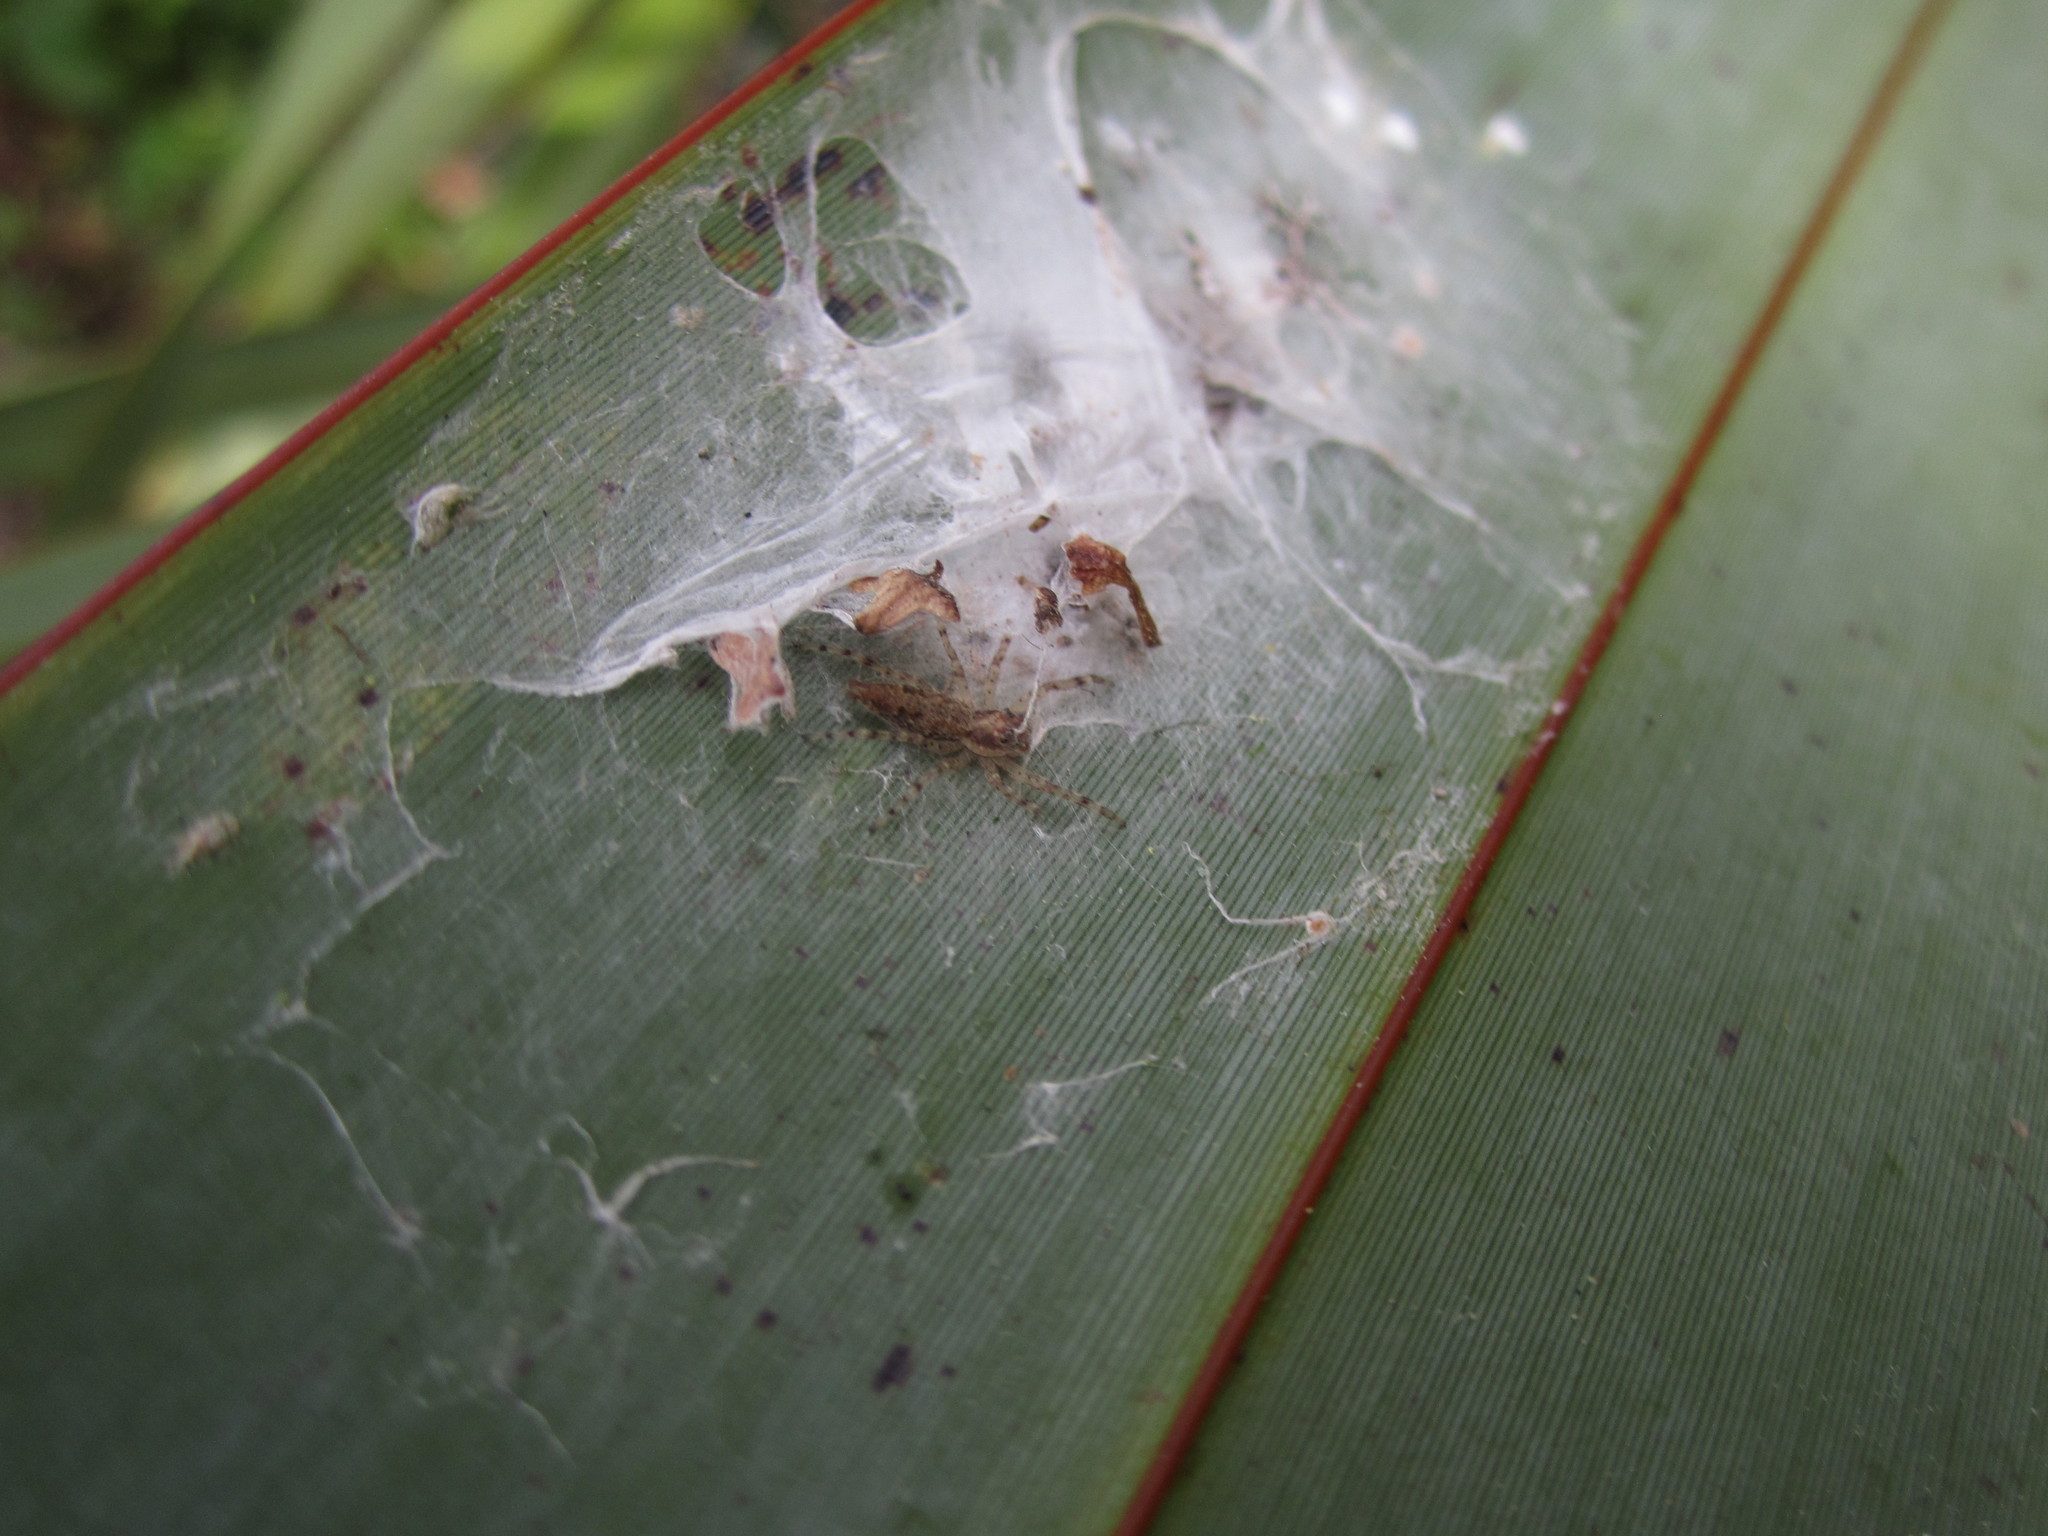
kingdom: Animalia
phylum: Arthropoda
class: Arachnida
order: Araneae
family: Salticidae
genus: Helpis
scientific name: Helpis minitabunda
